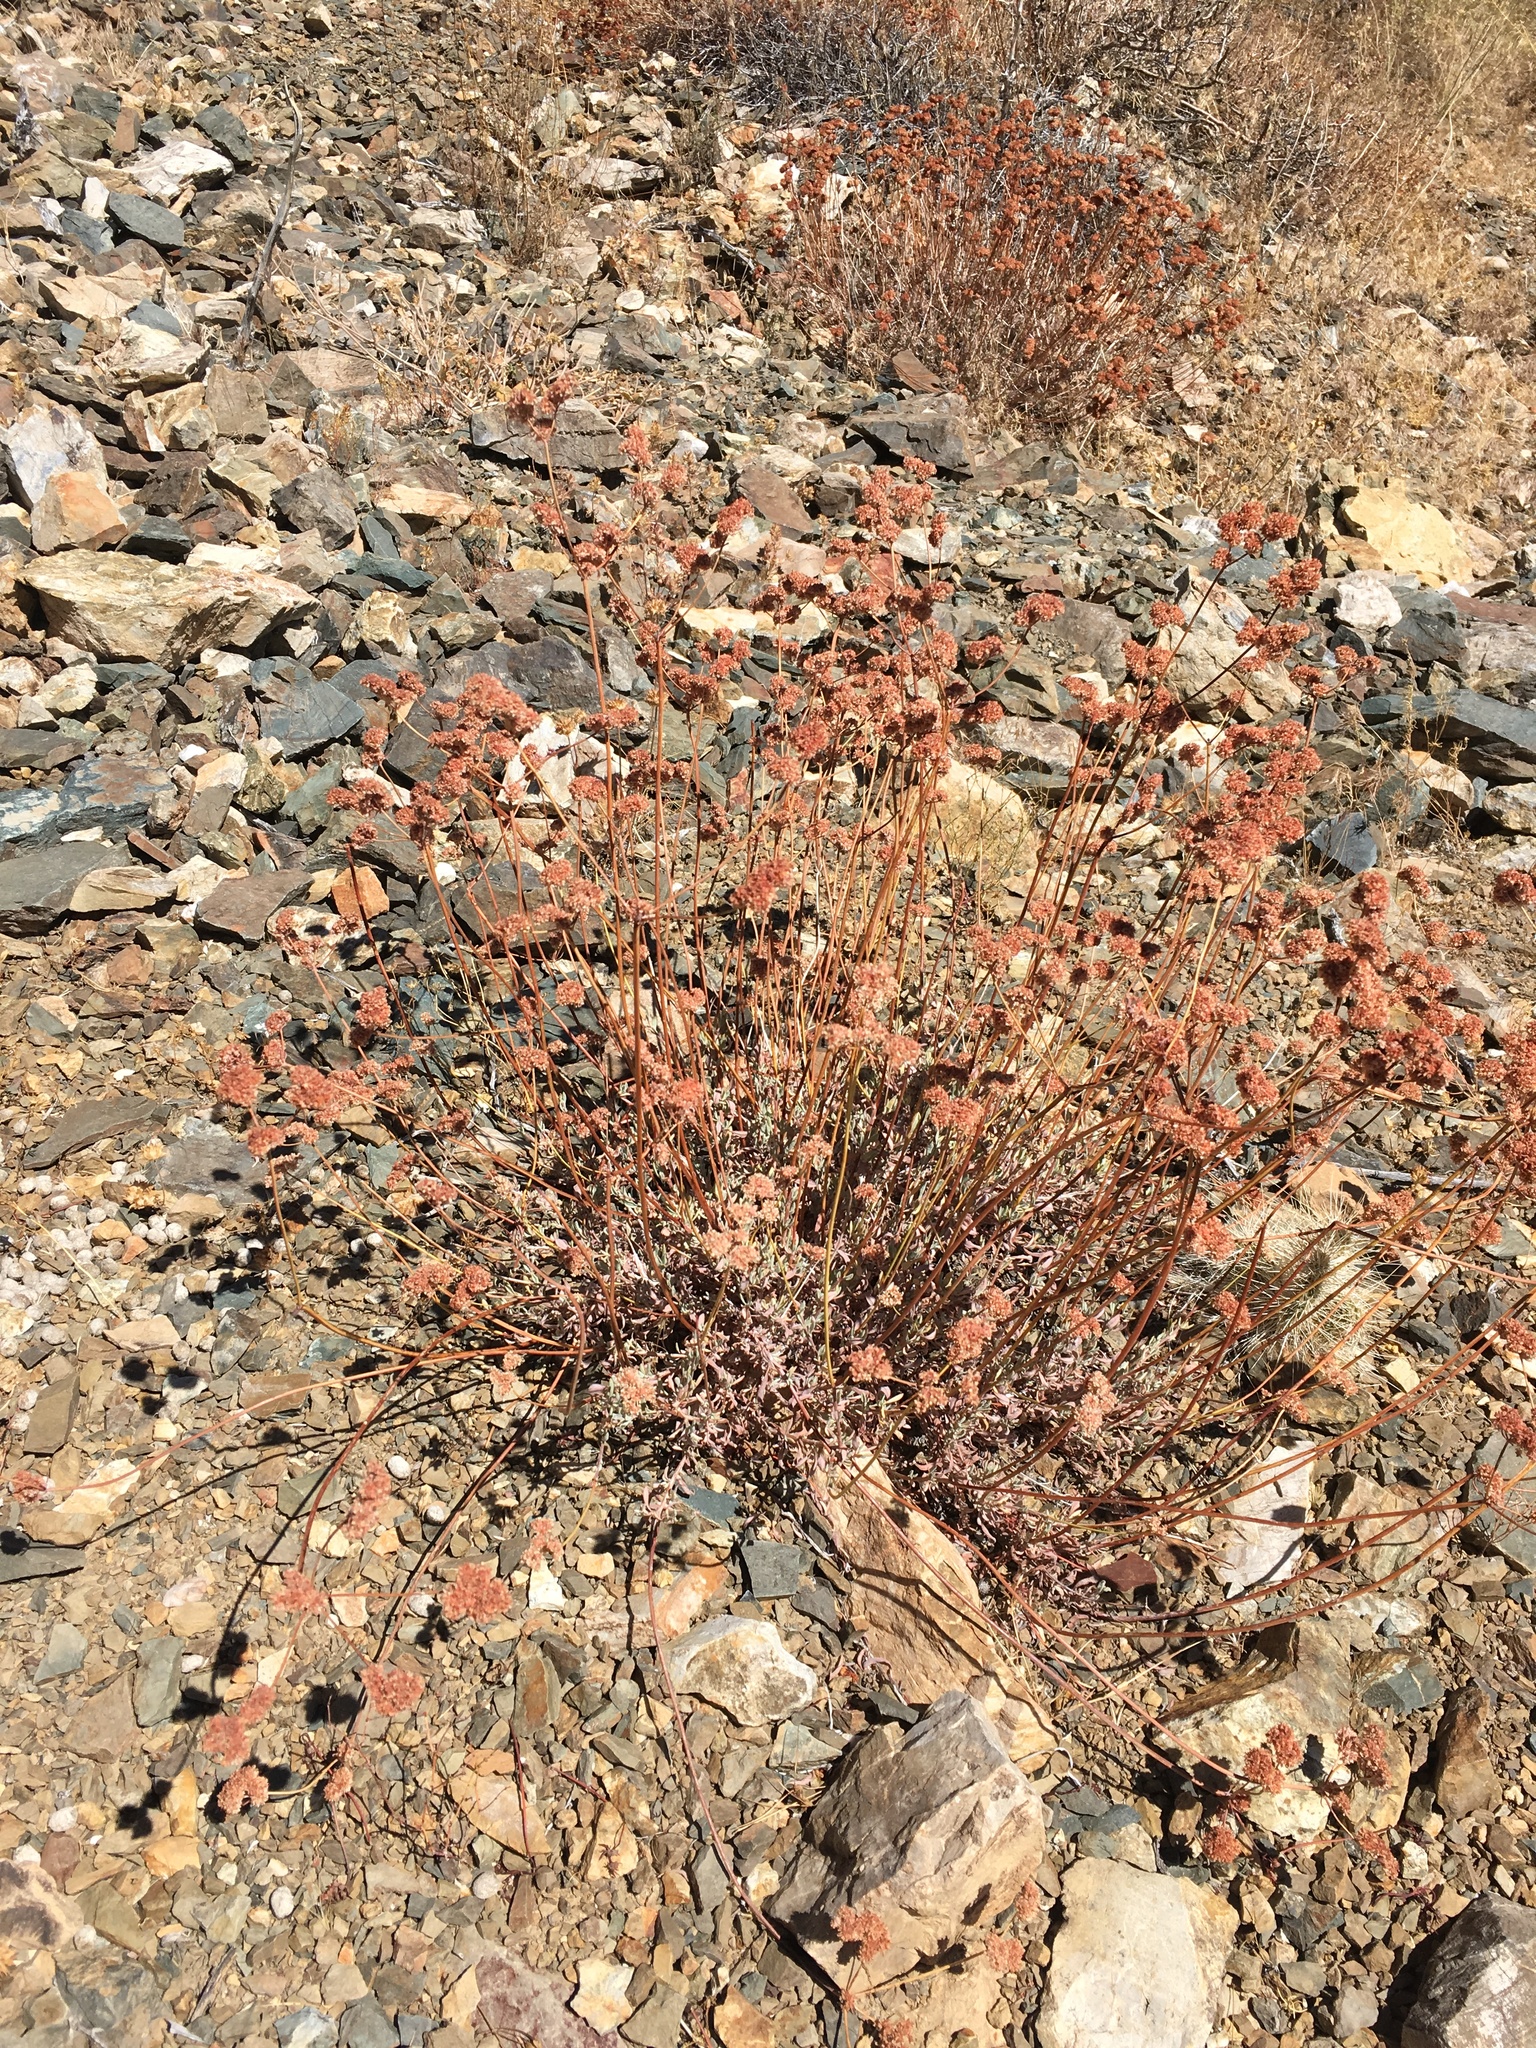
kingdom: Plantae
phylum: Tracheophyta
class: Magnoliopsida
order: Caryophyllales
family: Polygonaceae
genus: Eriogonum
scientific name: Eriogonum fasciculatum
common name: California wild buckwheat
